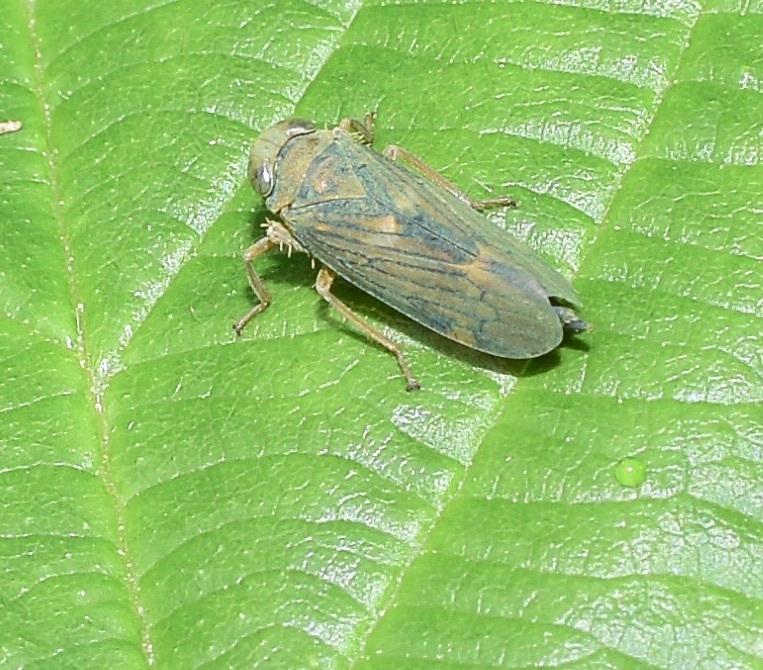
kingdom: Animalia
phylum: Arthropoda
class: Insecta
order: Hemiptera
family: Cicadellidae
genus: Jikradia
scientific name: Jikradia olitoria
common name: Coppery leafhopper
